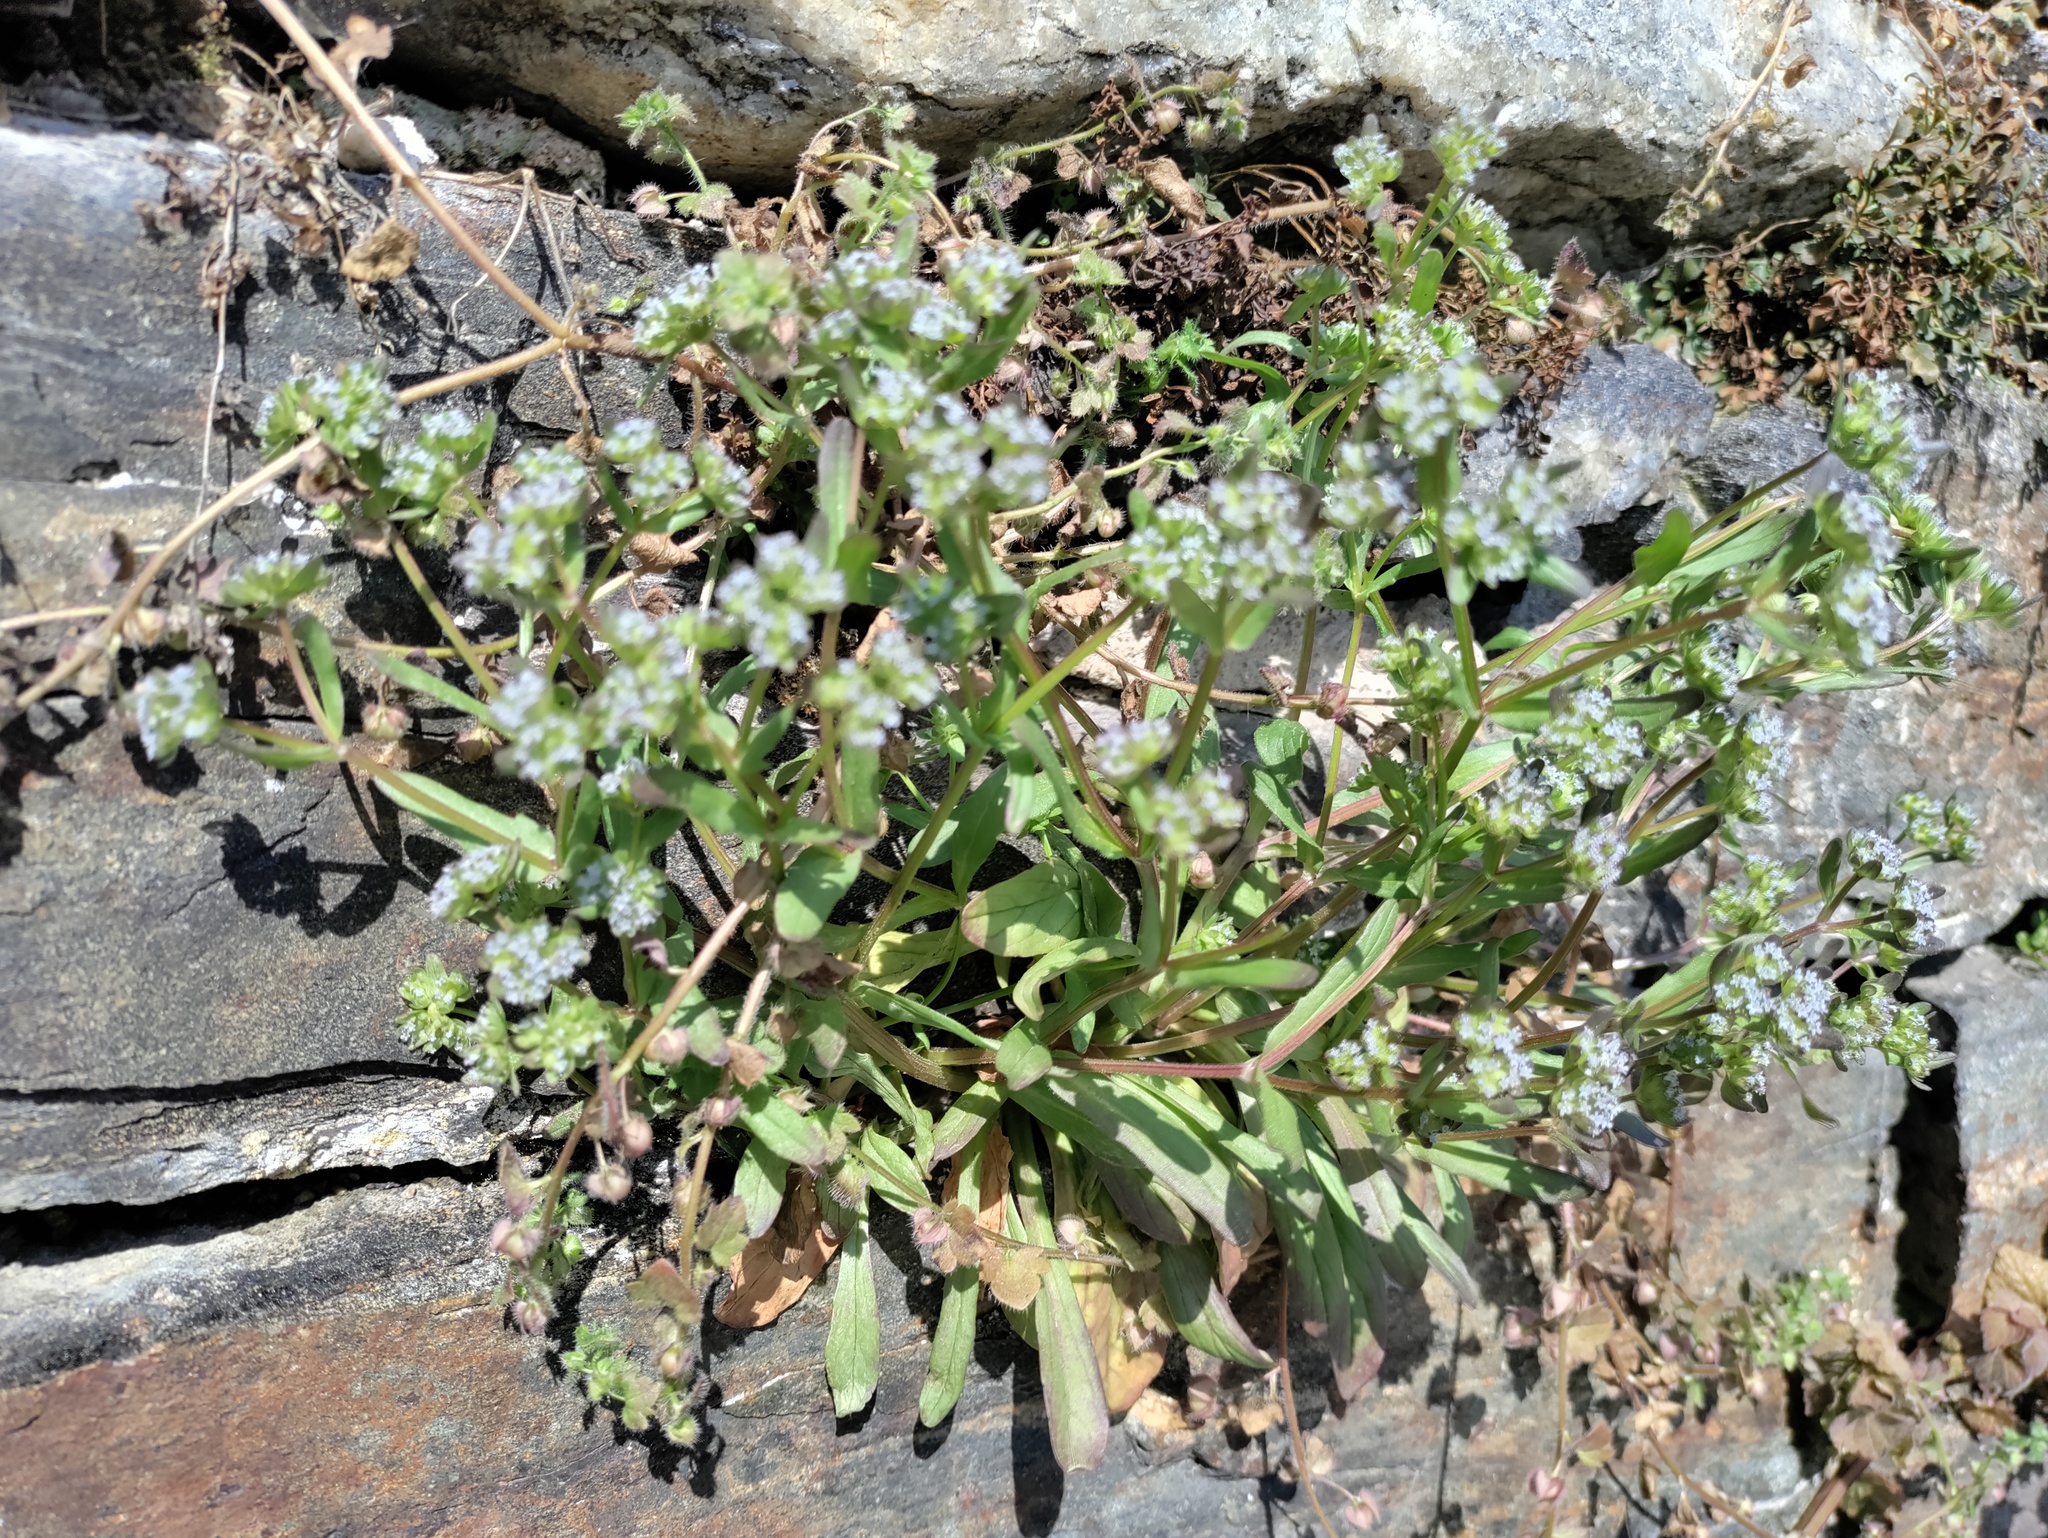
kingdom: Plantae
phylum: Tracheophyta
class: Magnoliopsida
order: Dipsacales
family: Caprifoliaceae
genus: Valerianella
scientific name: Valerianella locusta
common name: Common cornsalad
